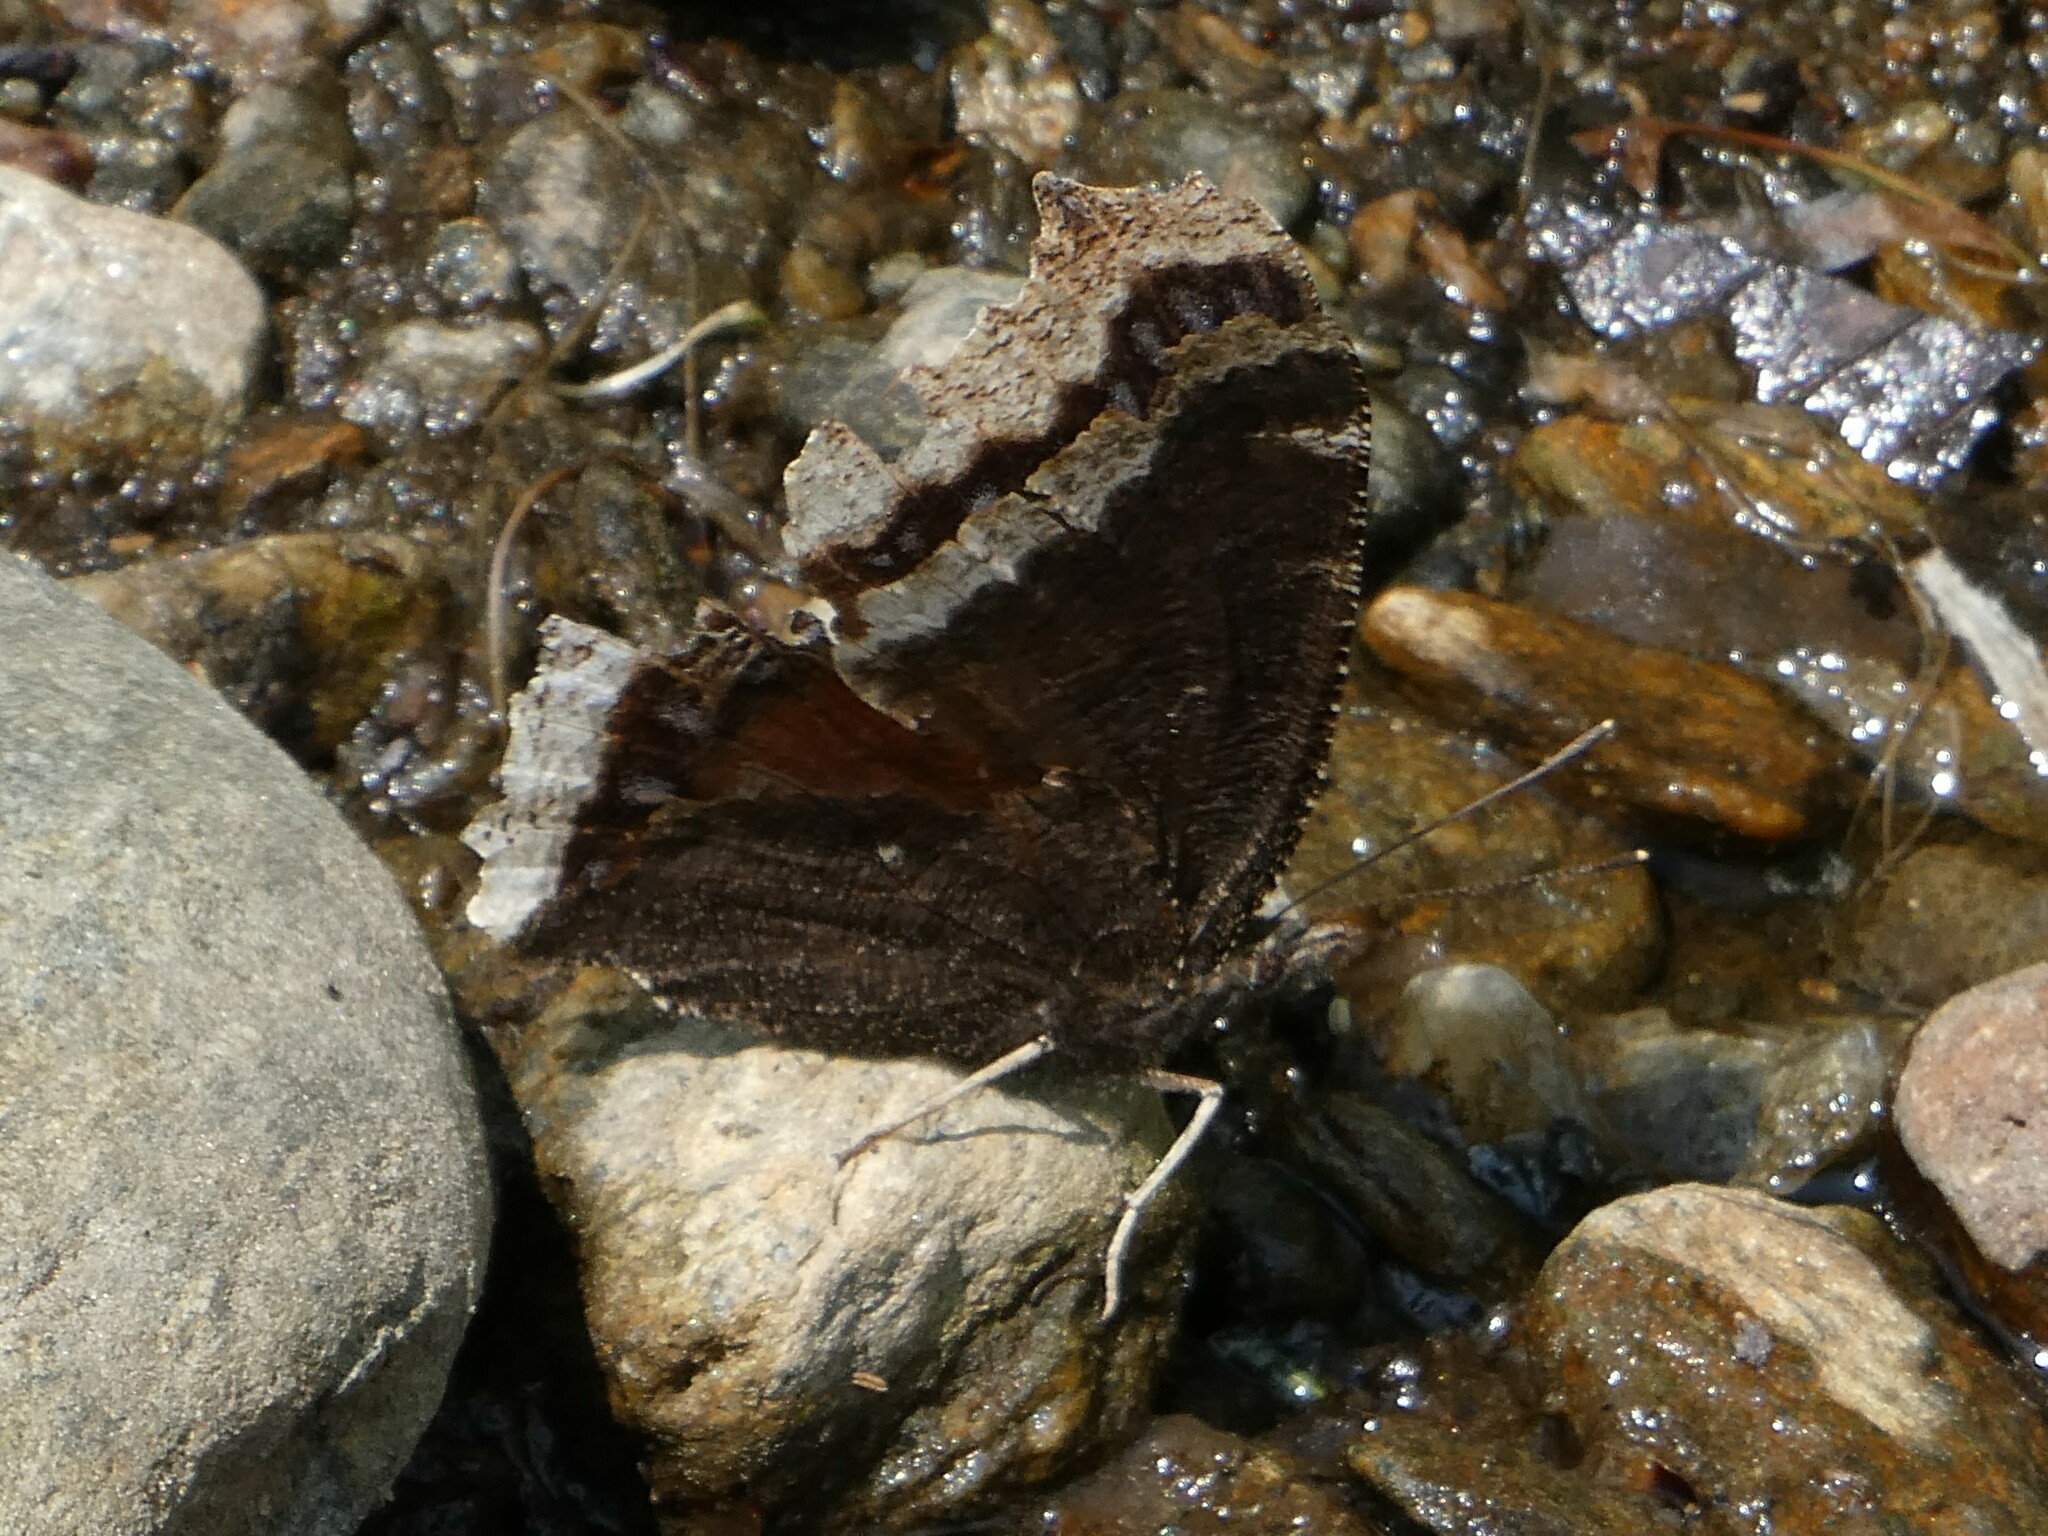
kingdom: Animalia
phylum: Arthropoda
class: Insecta
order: Lepidoptera
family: Nymphalidae
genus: Nymphalis
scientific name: Nymphalis antiopa
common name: Camberwell beauty
